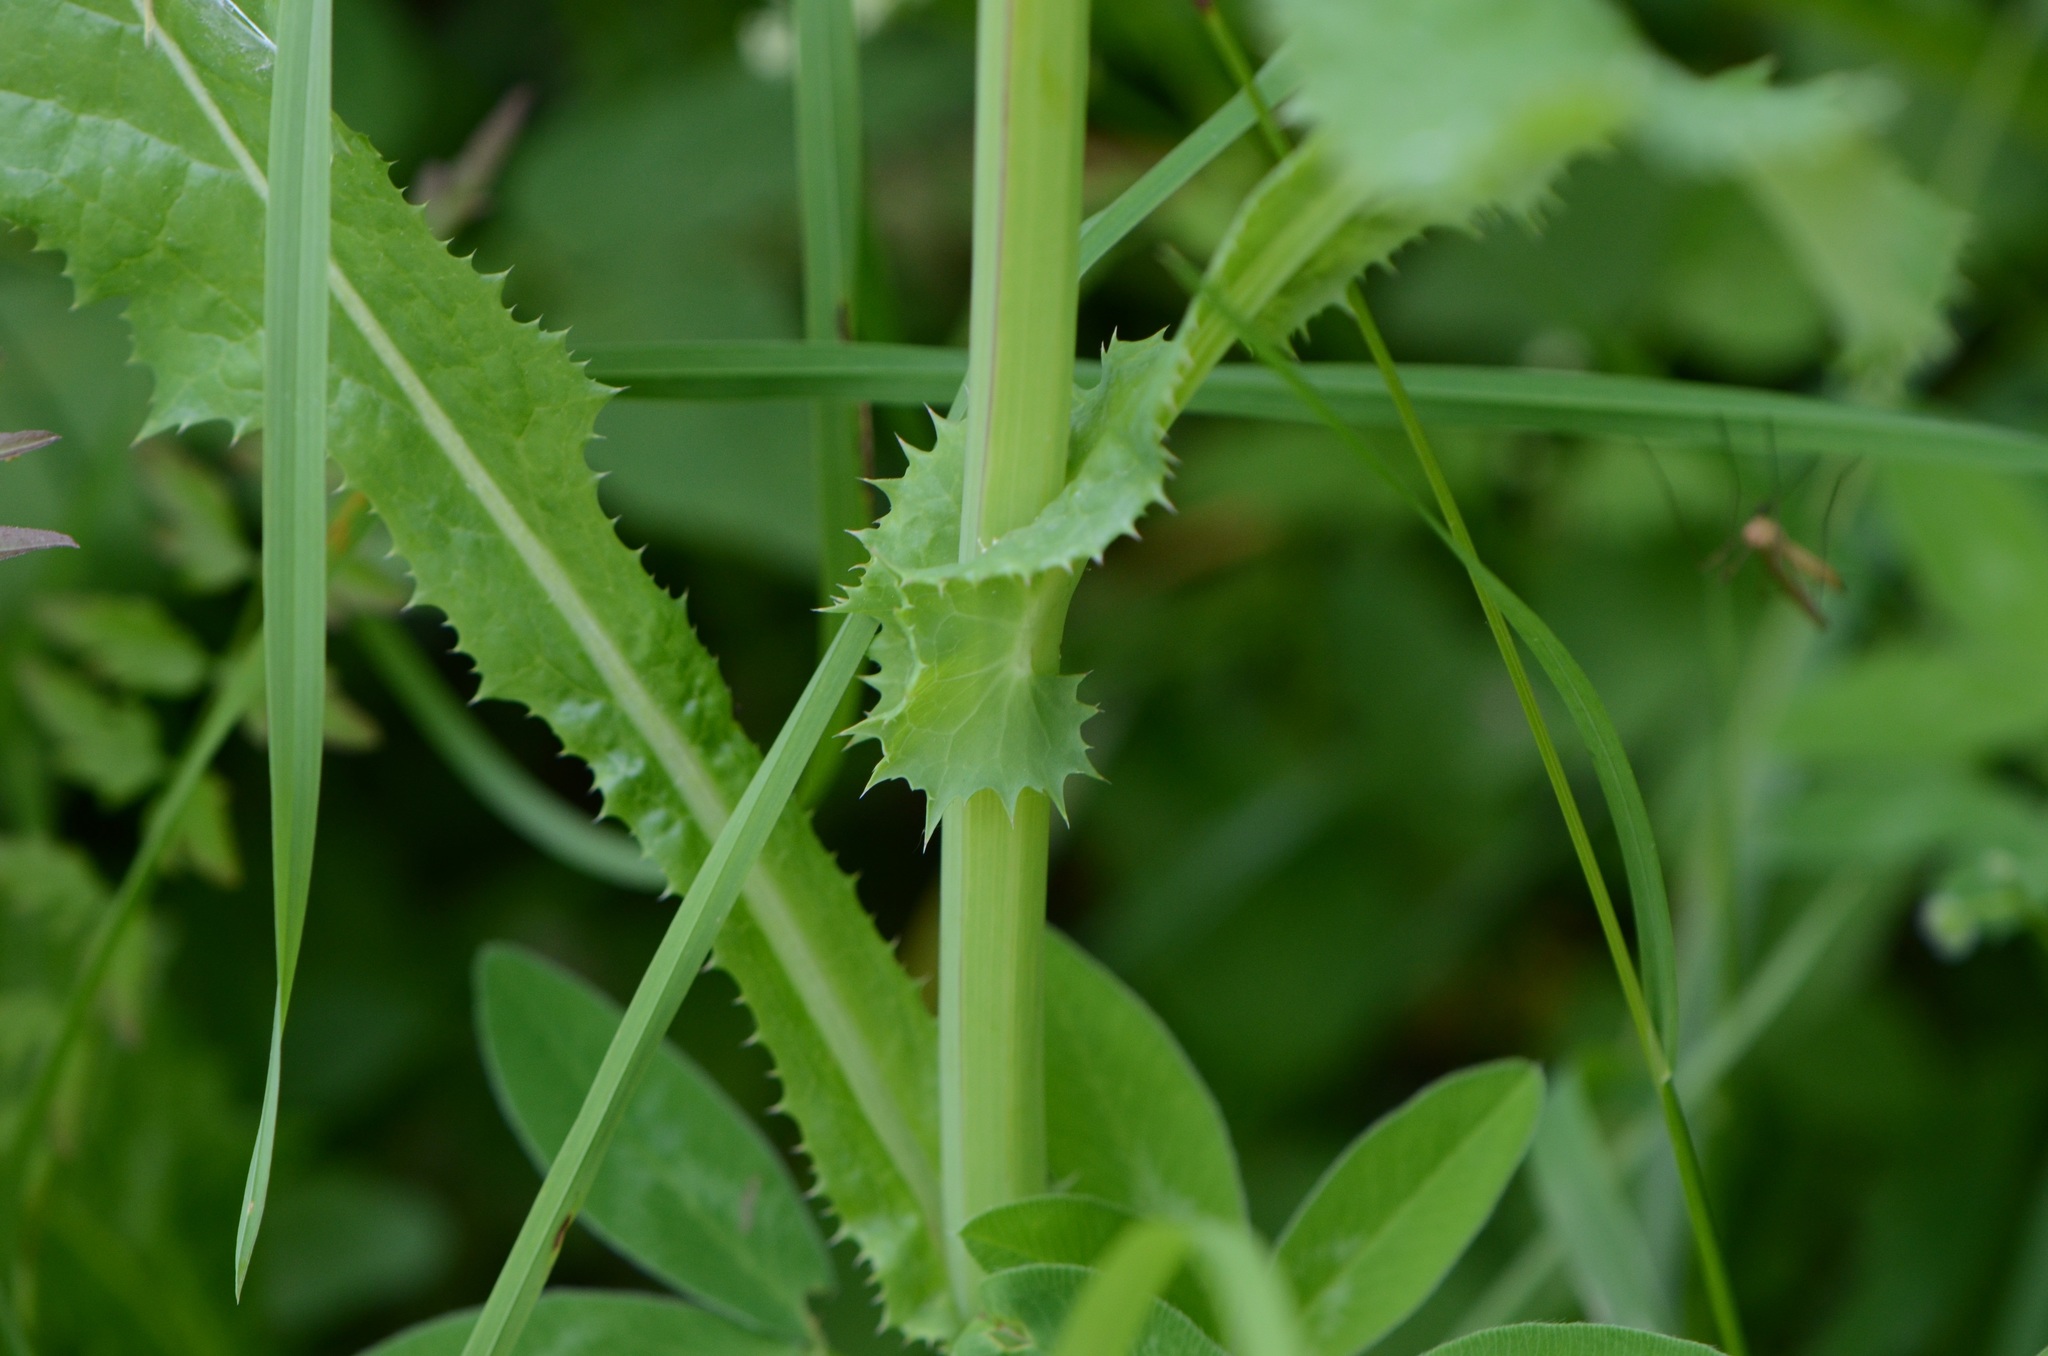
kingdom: Plantae
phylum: Tracheophyta
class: Magnoliopsida
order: Asterales
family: Asteraceae
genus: Sonchus
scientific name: Sonchus asper
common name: Prickly sow-thistle
